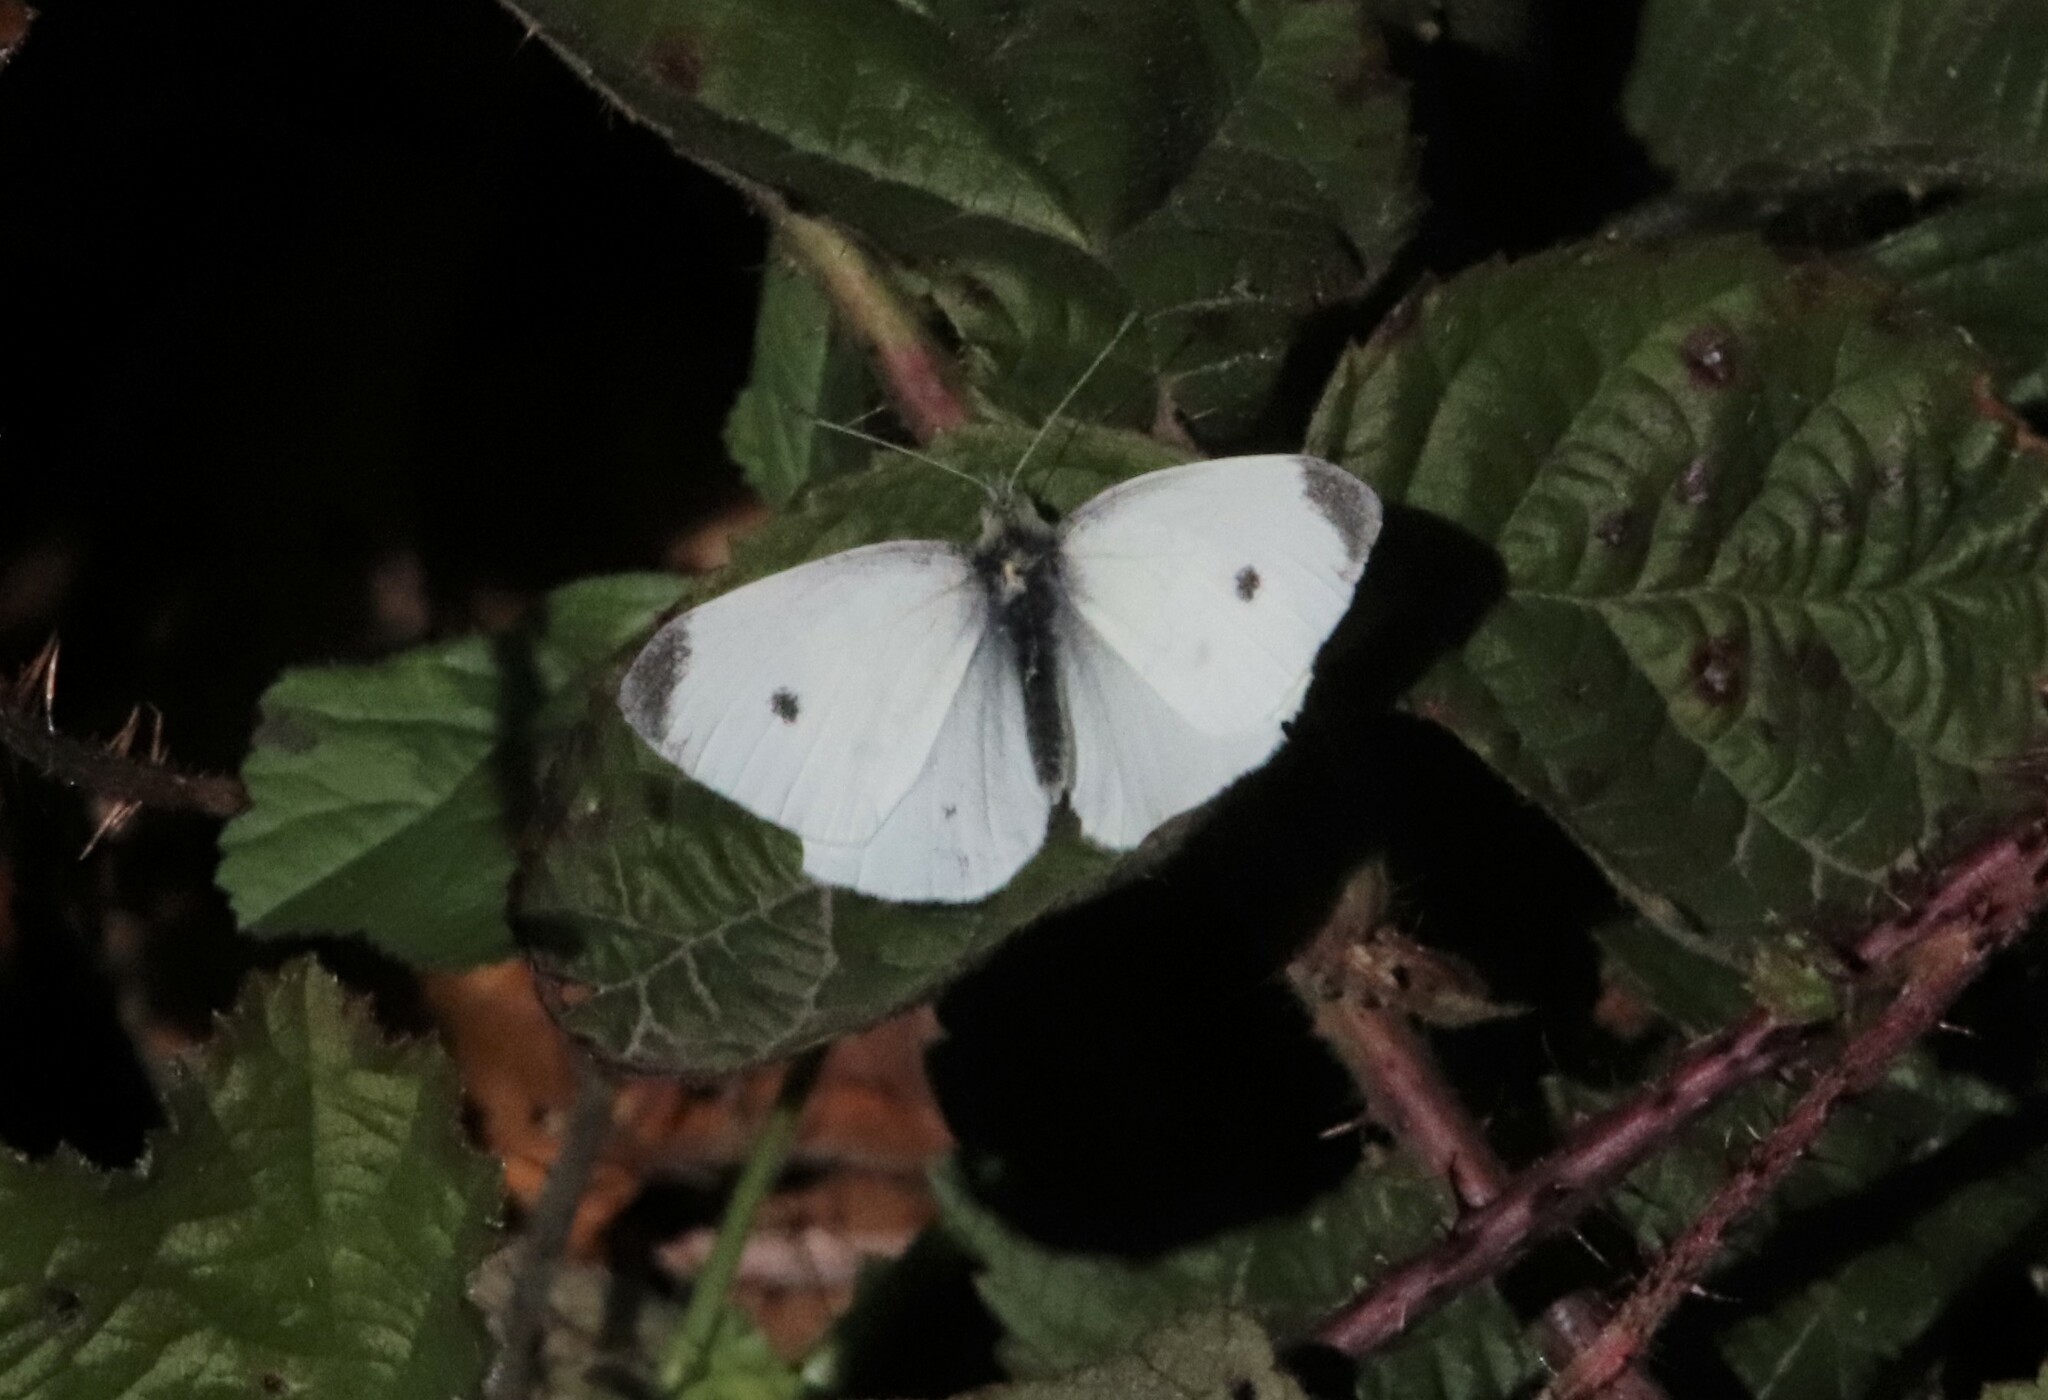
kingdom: Animalia
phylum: Arthropoda
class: Insecta
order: Lepidoptera
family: Pieridae
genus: Pieris
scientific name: Pieris rapae
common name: Small white
